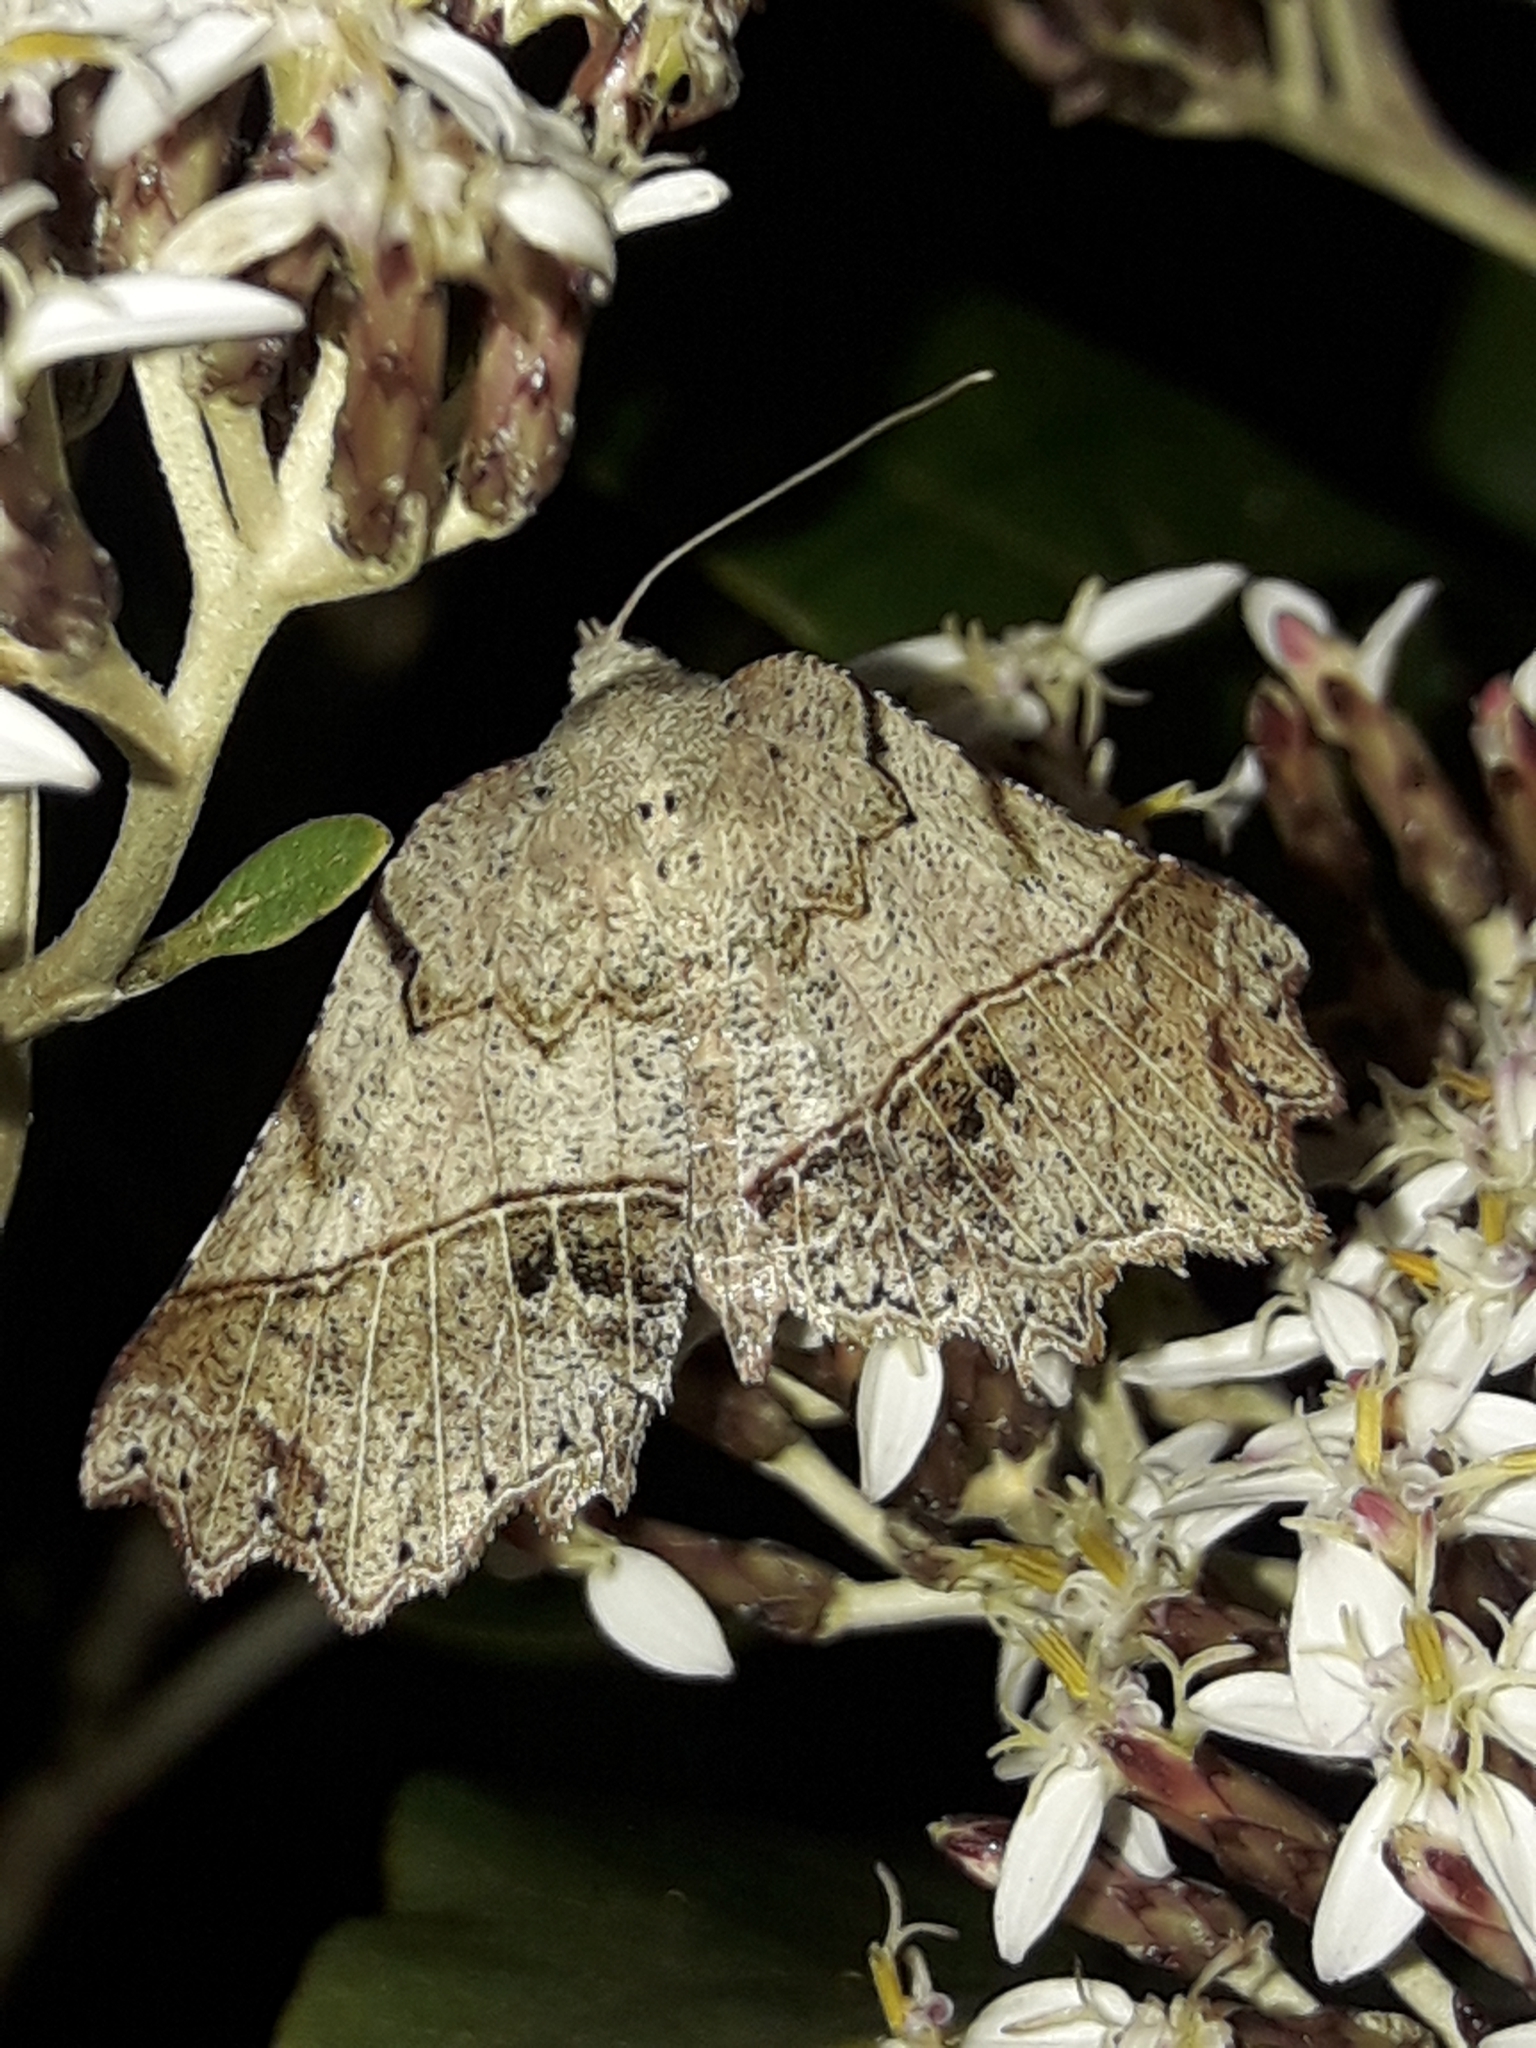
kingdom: Animalia
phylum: Arthropoda
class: Insecta
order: Lepidoptera
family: Geometridae
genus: Ischalis
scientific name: Ischalis gallaria
